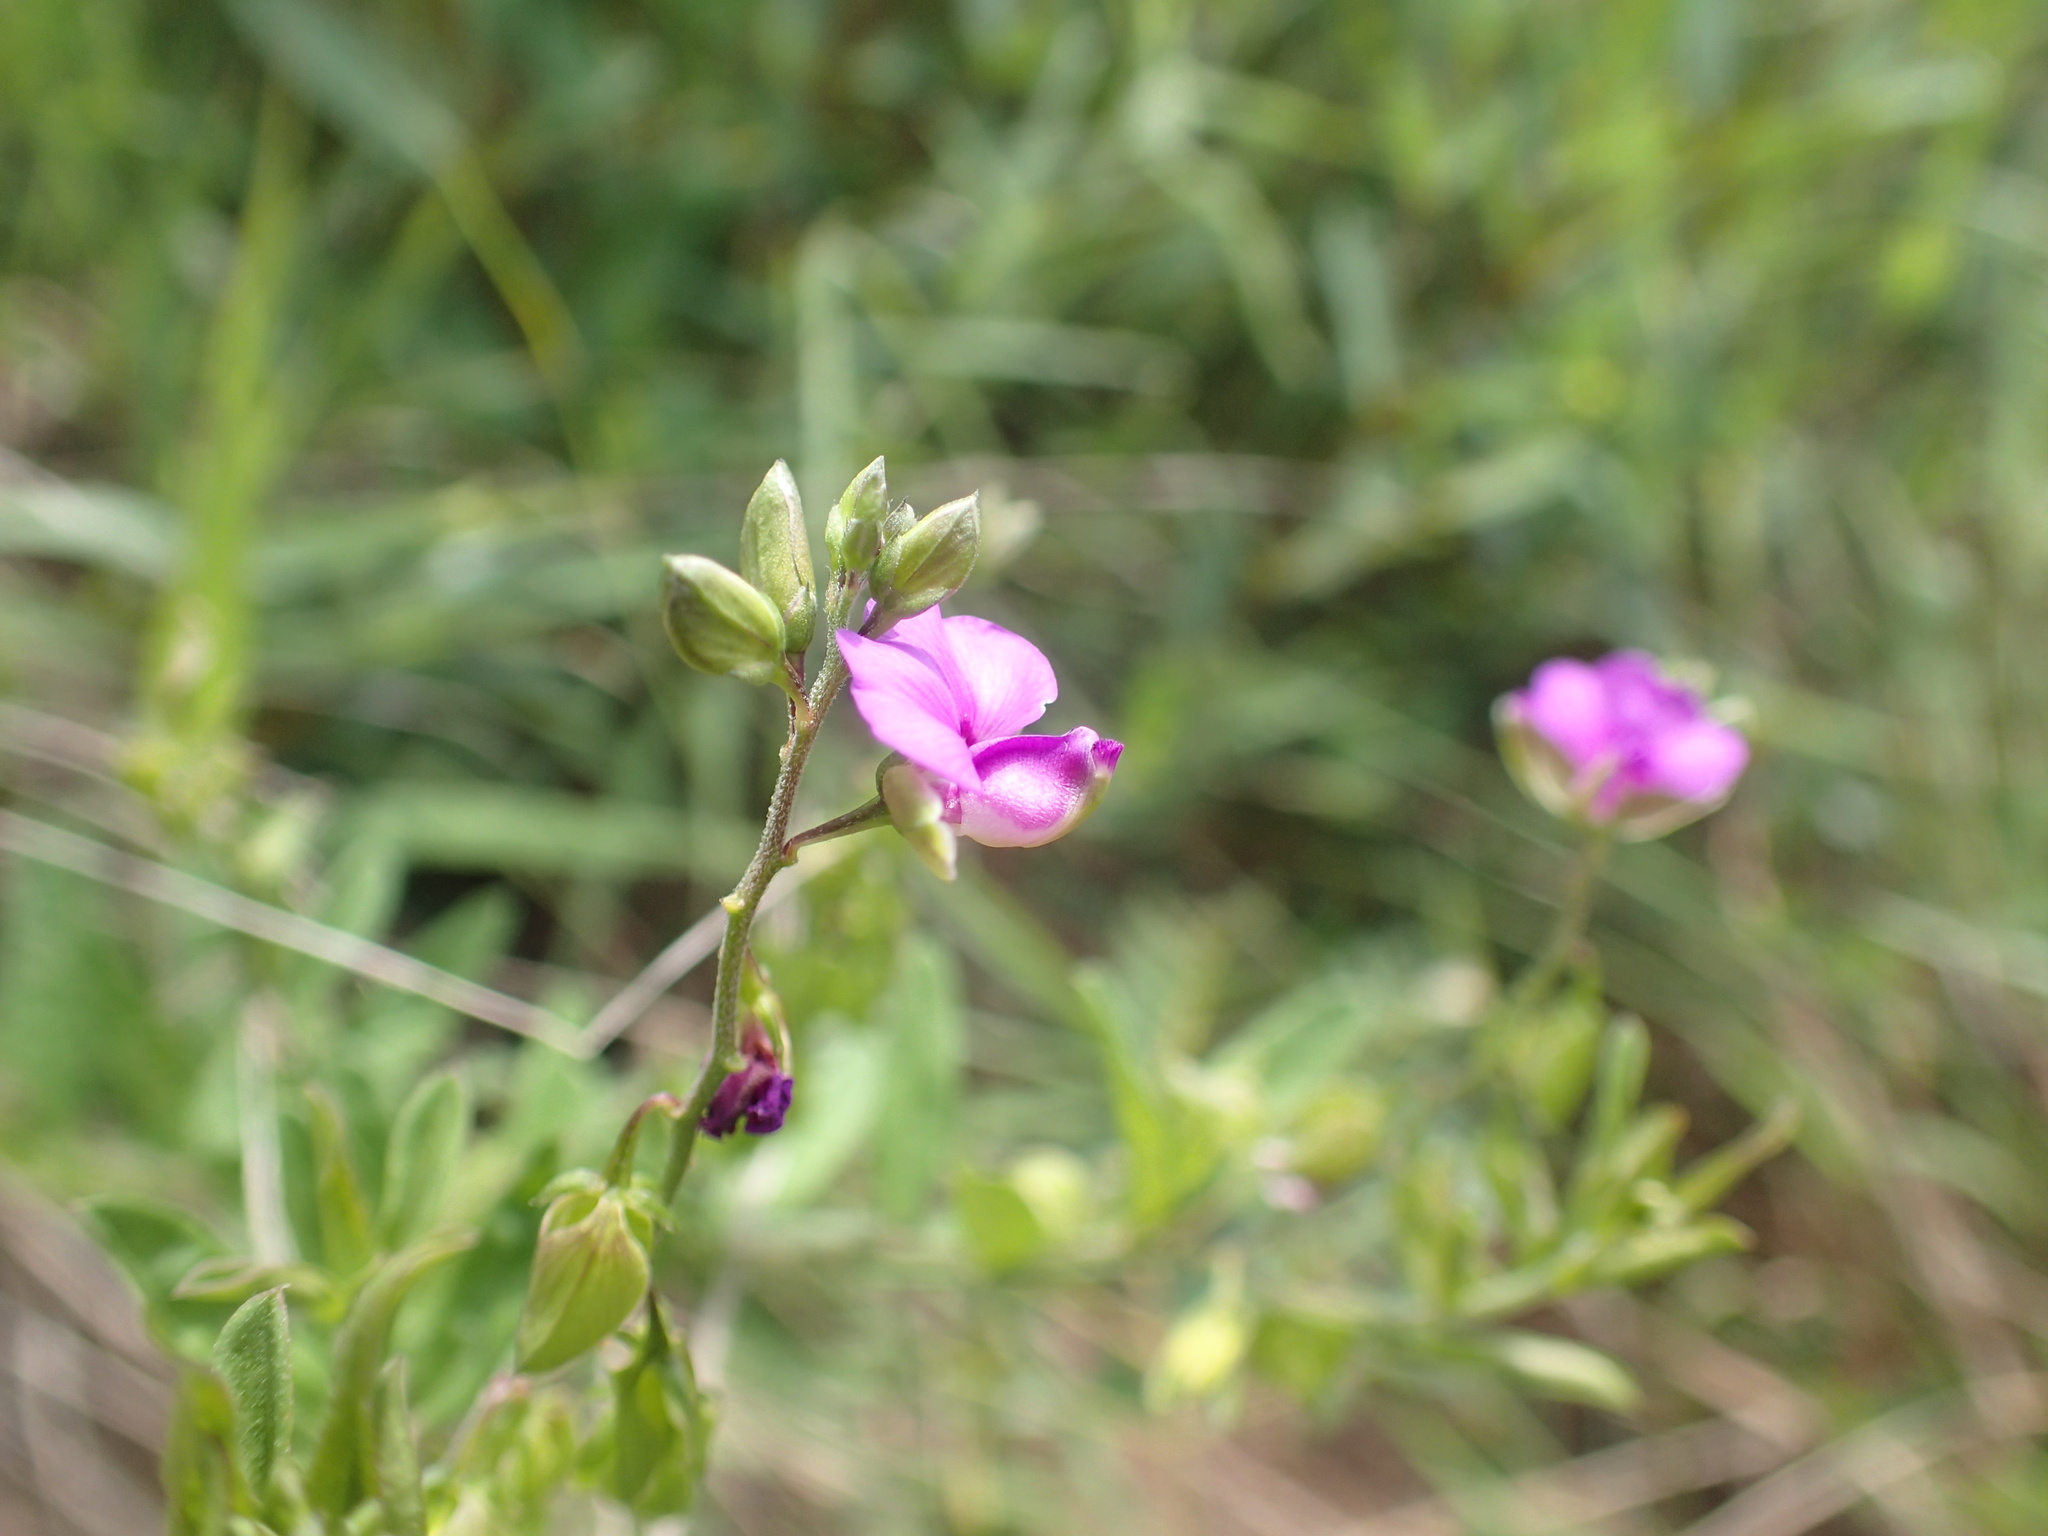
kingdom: Plantae
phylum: Tracheophyta
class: Magnoliopsida
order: Fabales
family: Polygalaceae
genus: Polygala
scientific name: Polygala serpentaria
